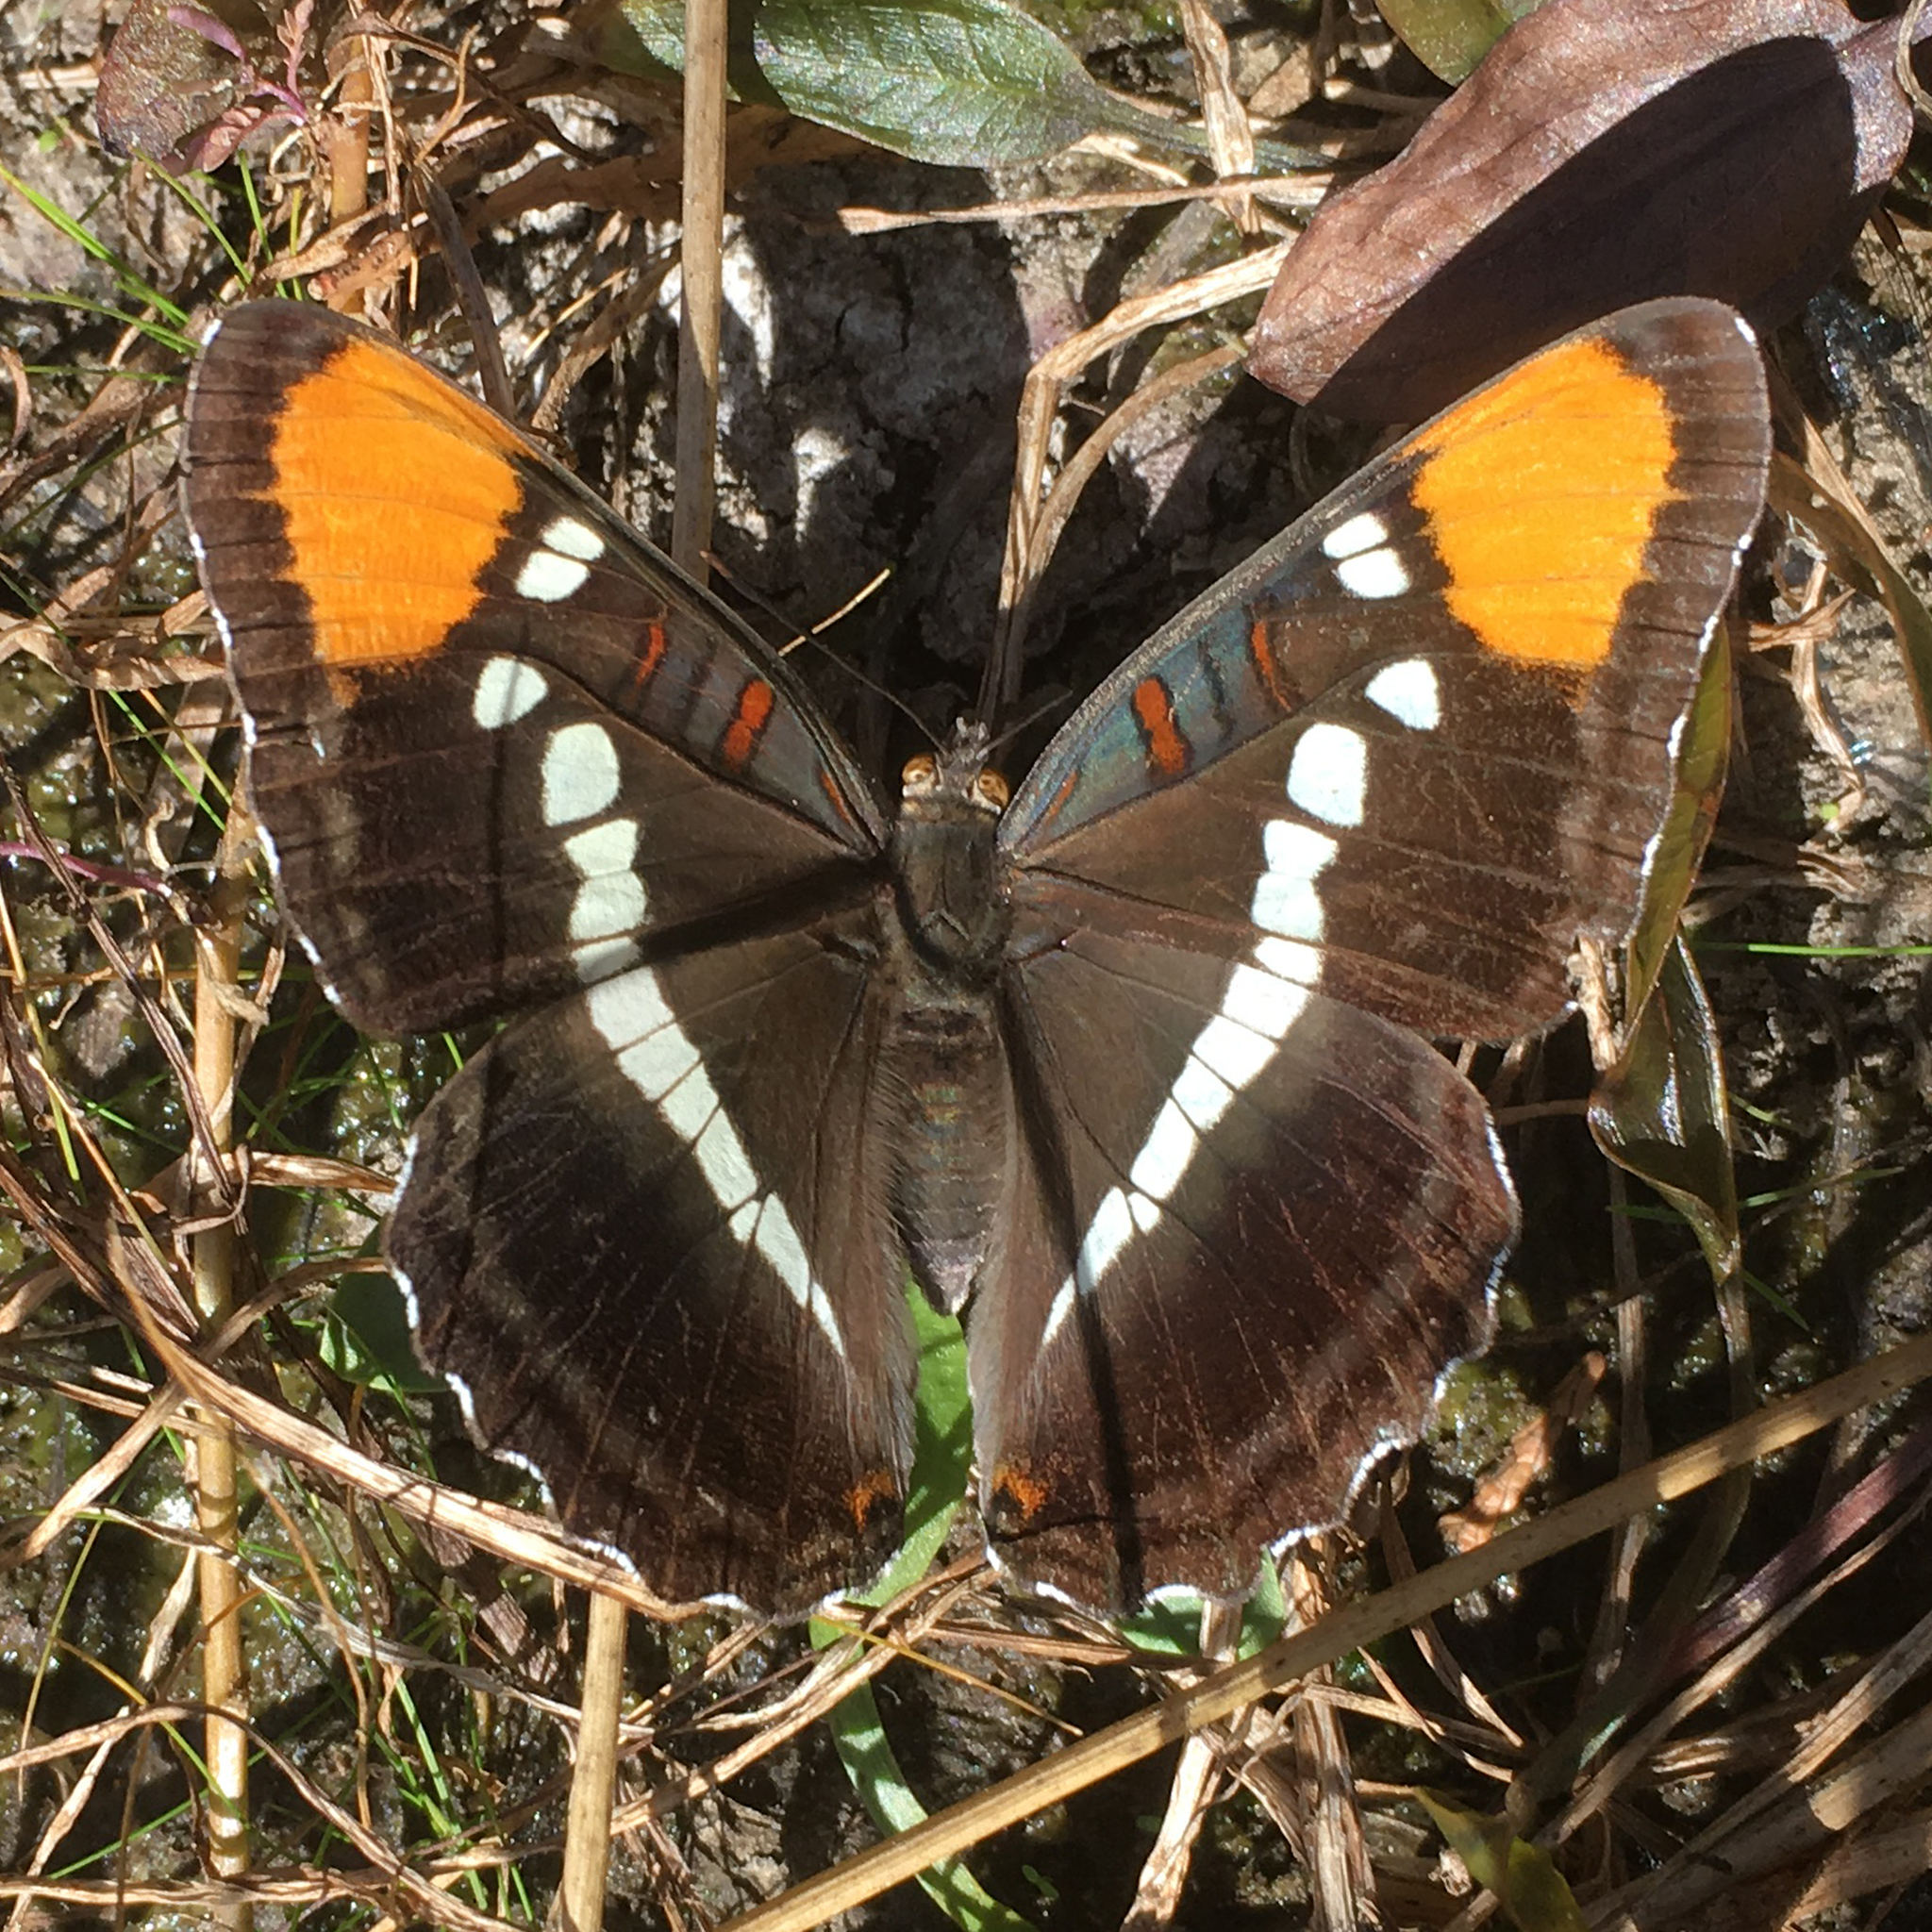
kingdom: Animalia
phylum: Arthropoda
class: Insecta
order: Lepidoptera
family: Nymphalidae
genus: Limenitis
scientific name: Limenitis bredowii
